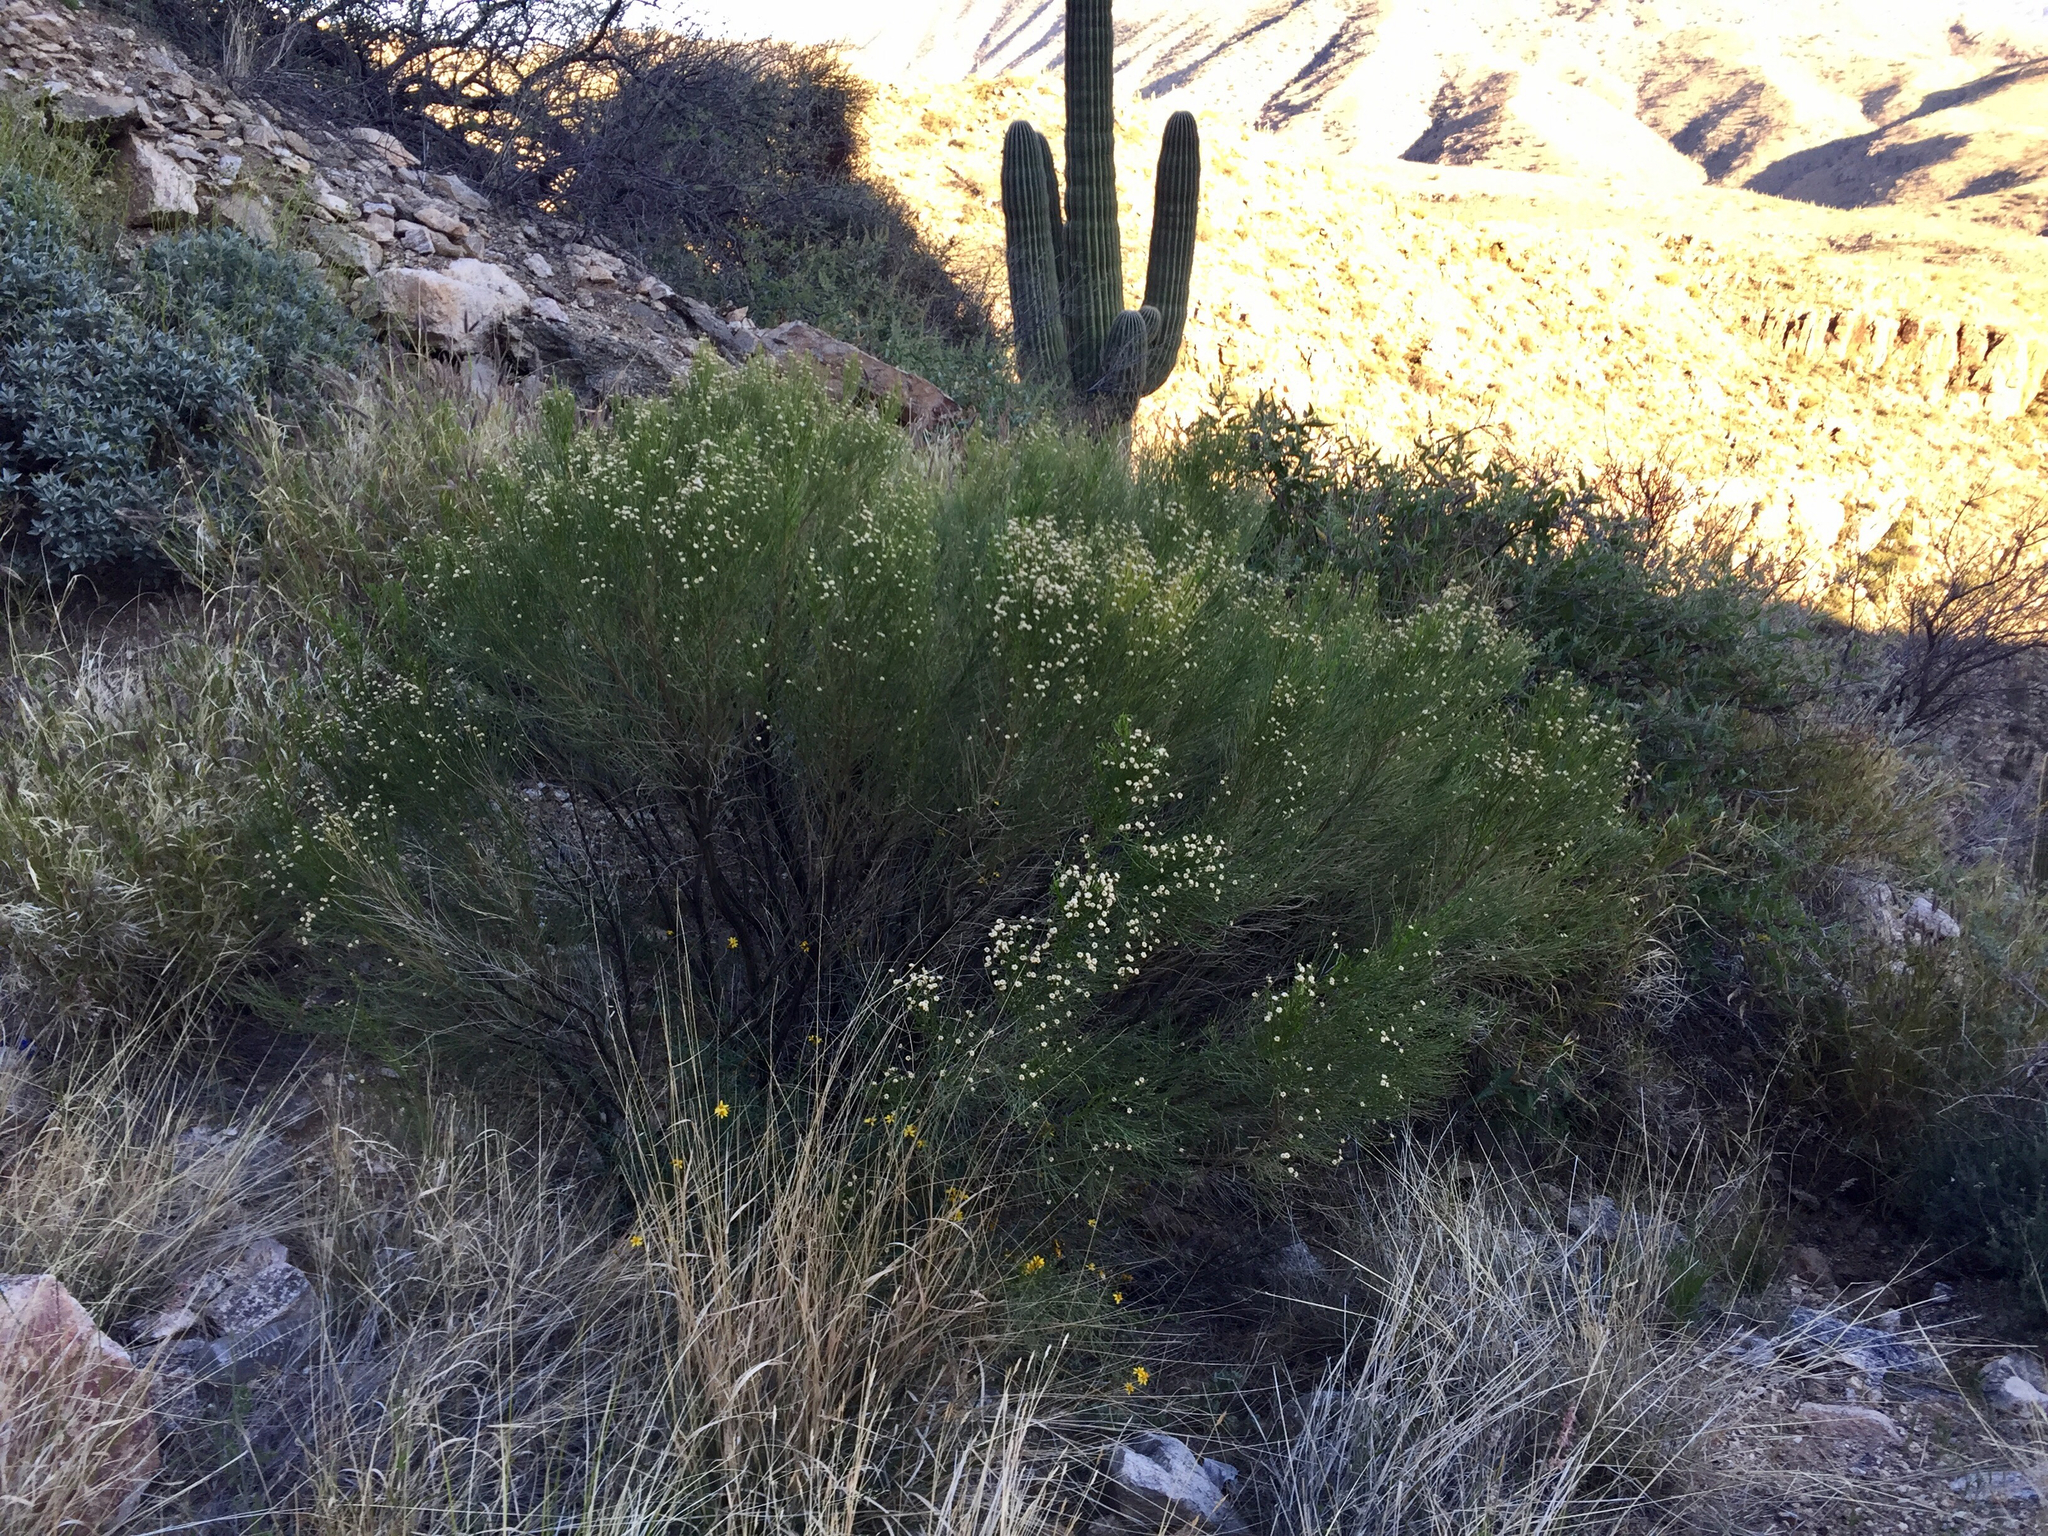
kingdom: Plantae
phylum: Tracheophyta
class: Magnoliopsida
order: Asterales
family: Asteraceae
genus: Baccharis
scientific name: Baccharis sarothroides
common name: Desert-broom
